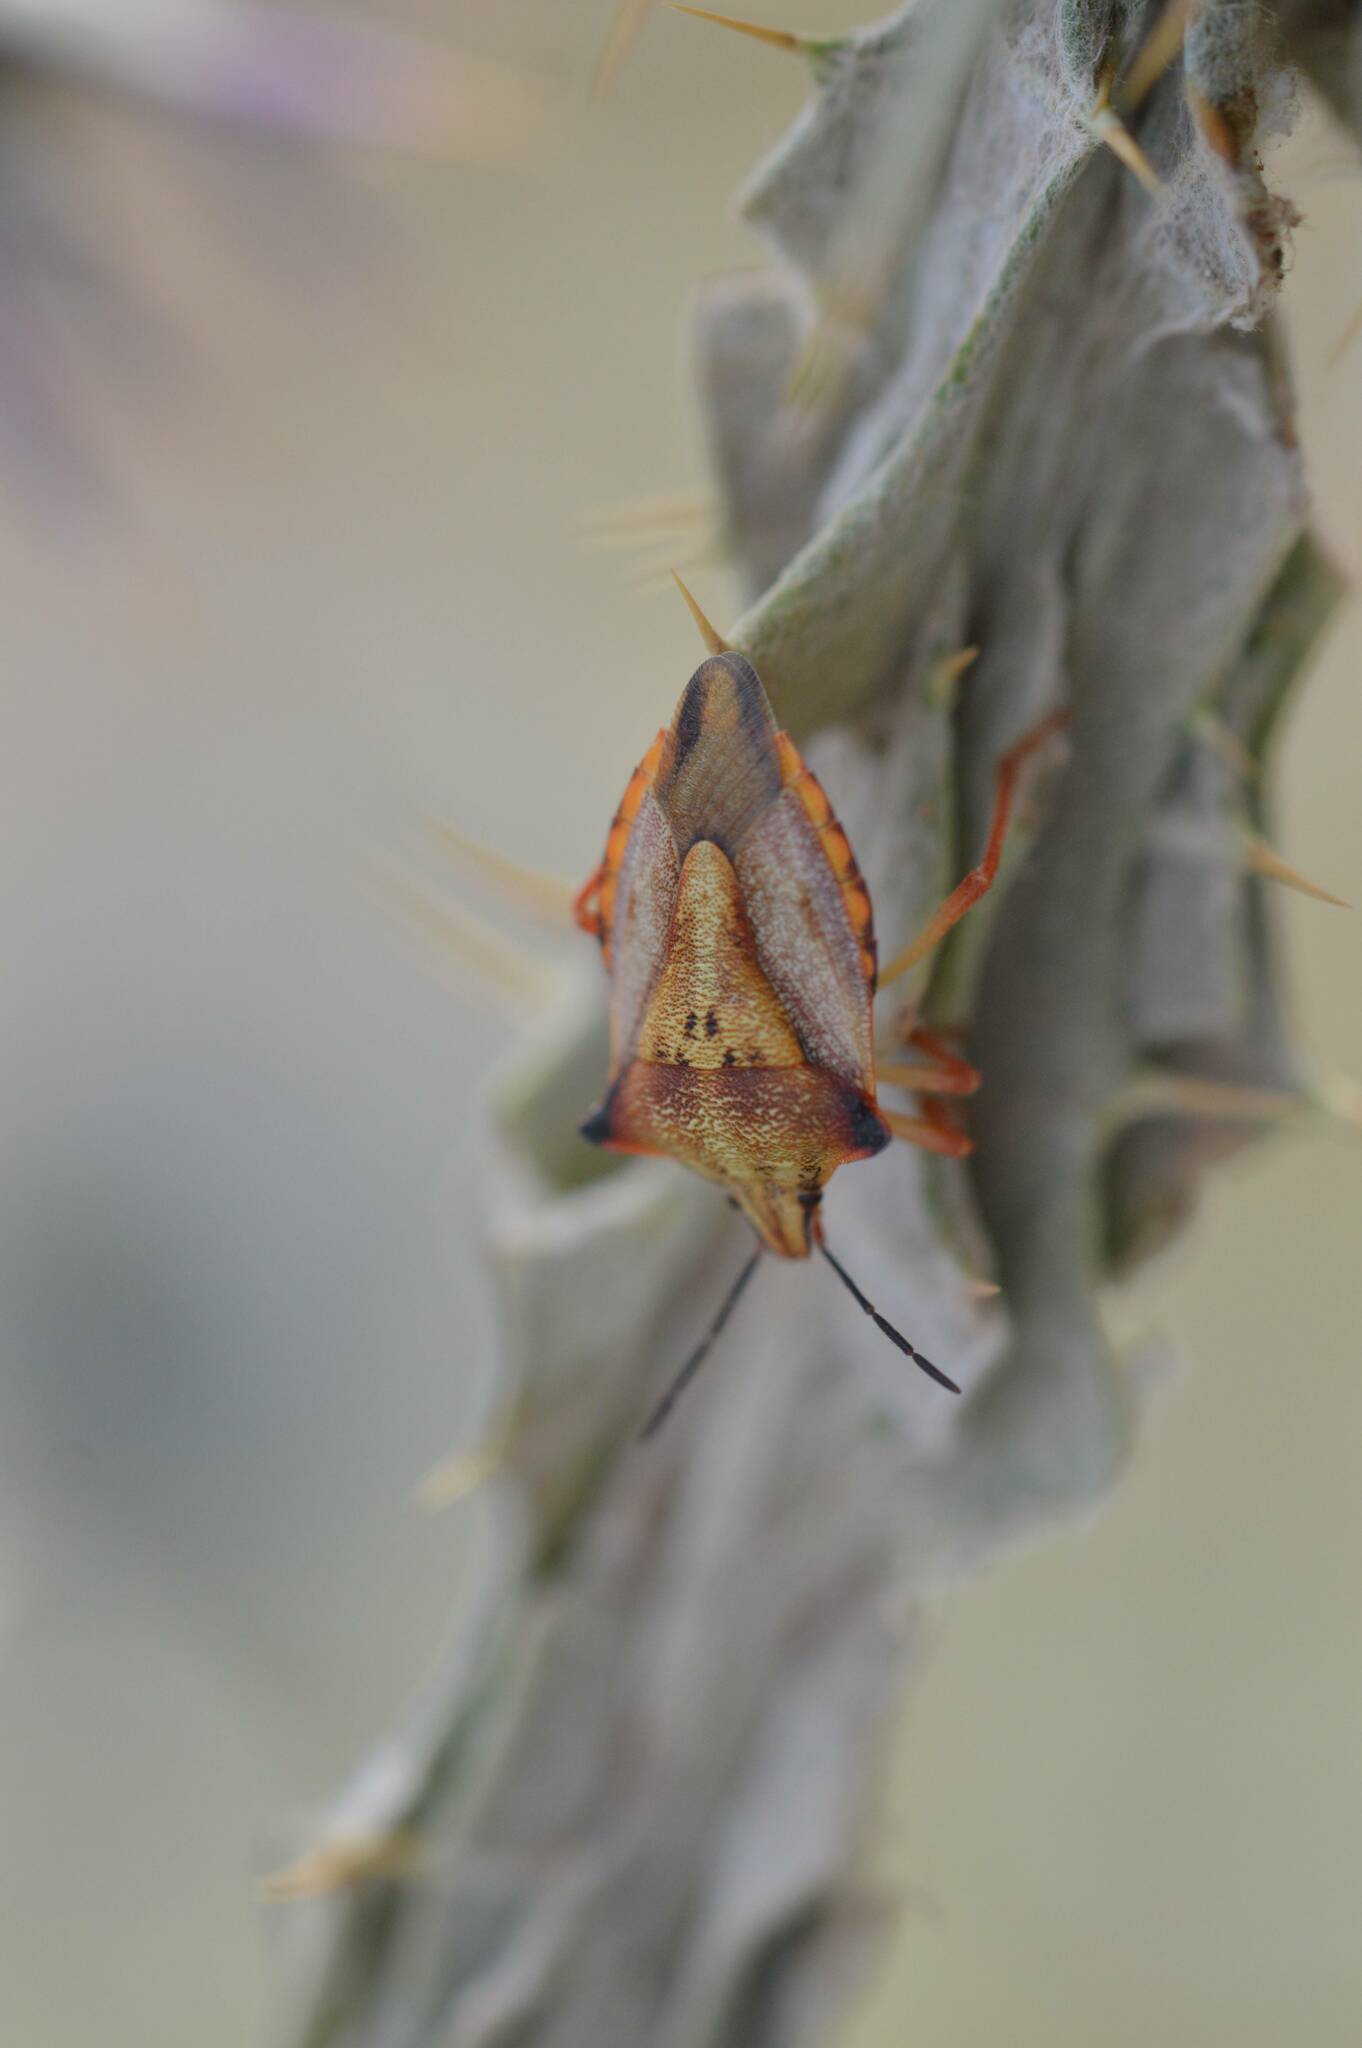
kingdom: Animalia
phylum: Arthropoda
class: Insecta
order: Hemiptera
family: Pentatomidae
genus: Carpocoris
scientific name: Carpocoris mediterraneus
